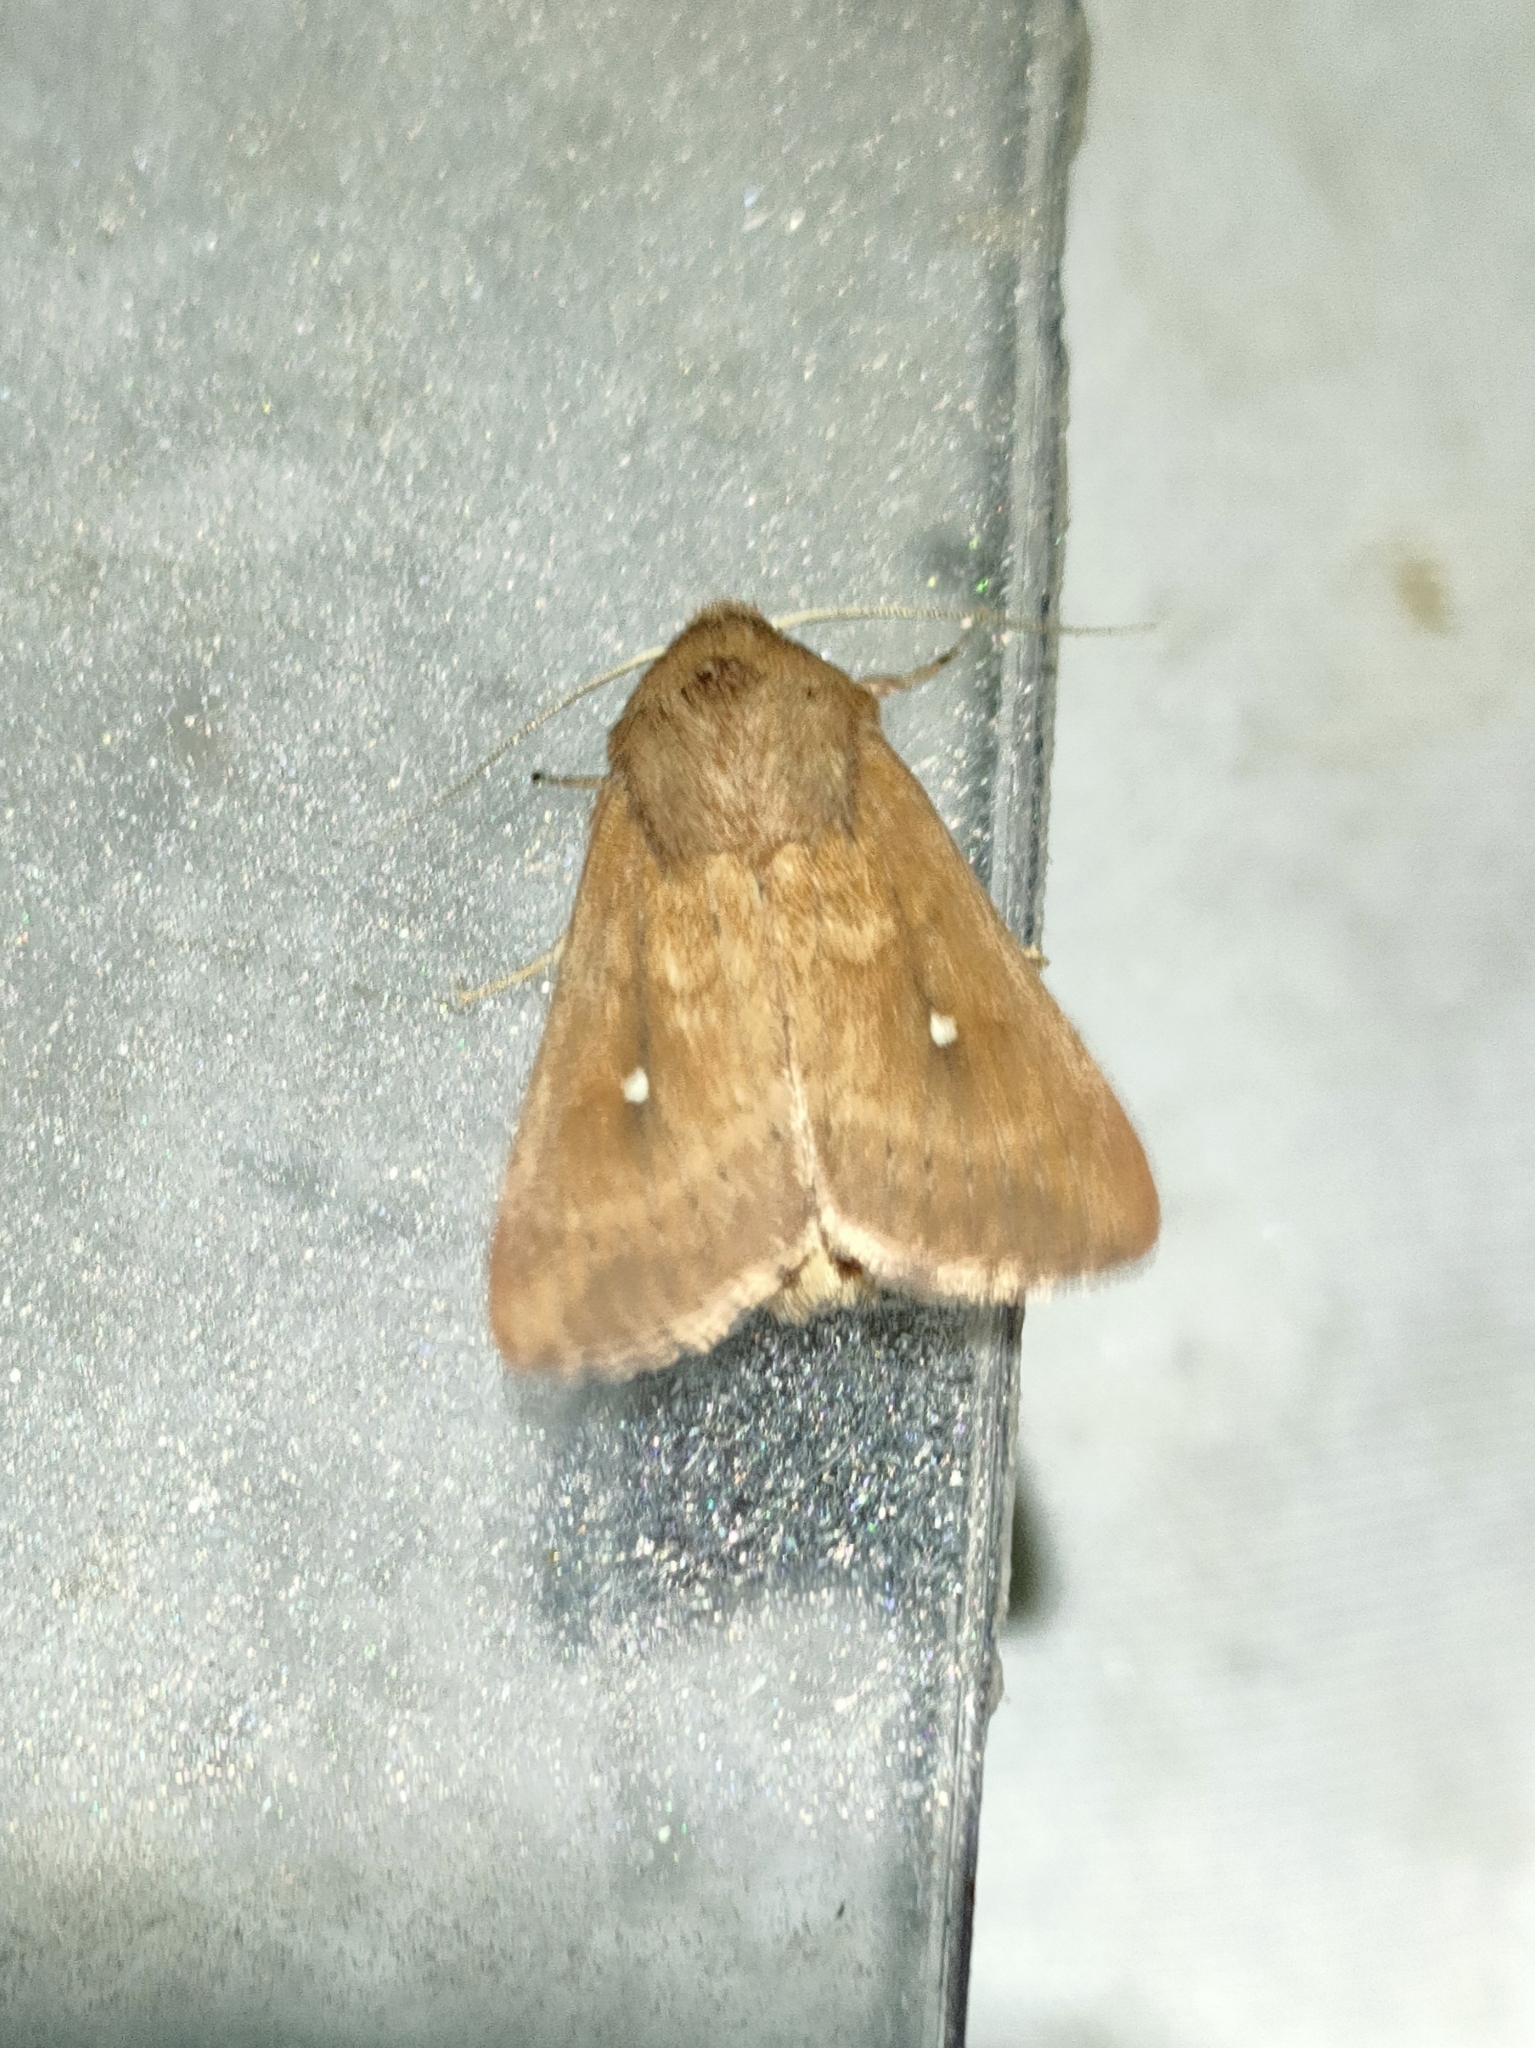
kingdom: Animalia
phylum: Arthropoda
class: Insecta
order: Lepidoptera
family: Noctuidae
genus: Mythimna
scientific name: Mythimna albipuncta
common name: White-point
